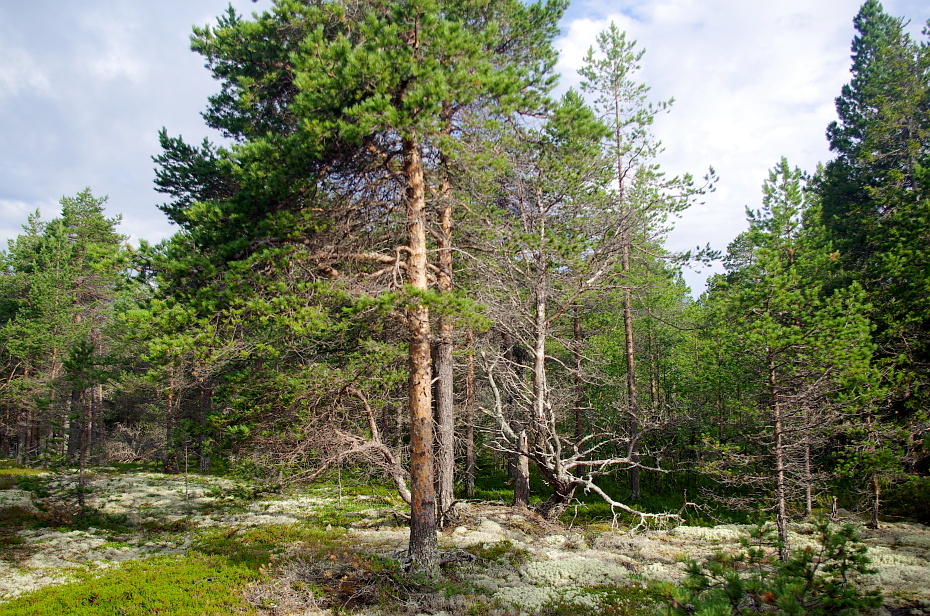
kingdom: Plantae
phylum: Tracheophyta
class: Pinopsida
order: Pinales
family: Pinaceae
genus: Pinus
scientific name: Pinus sylvestris
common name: Scots pine
